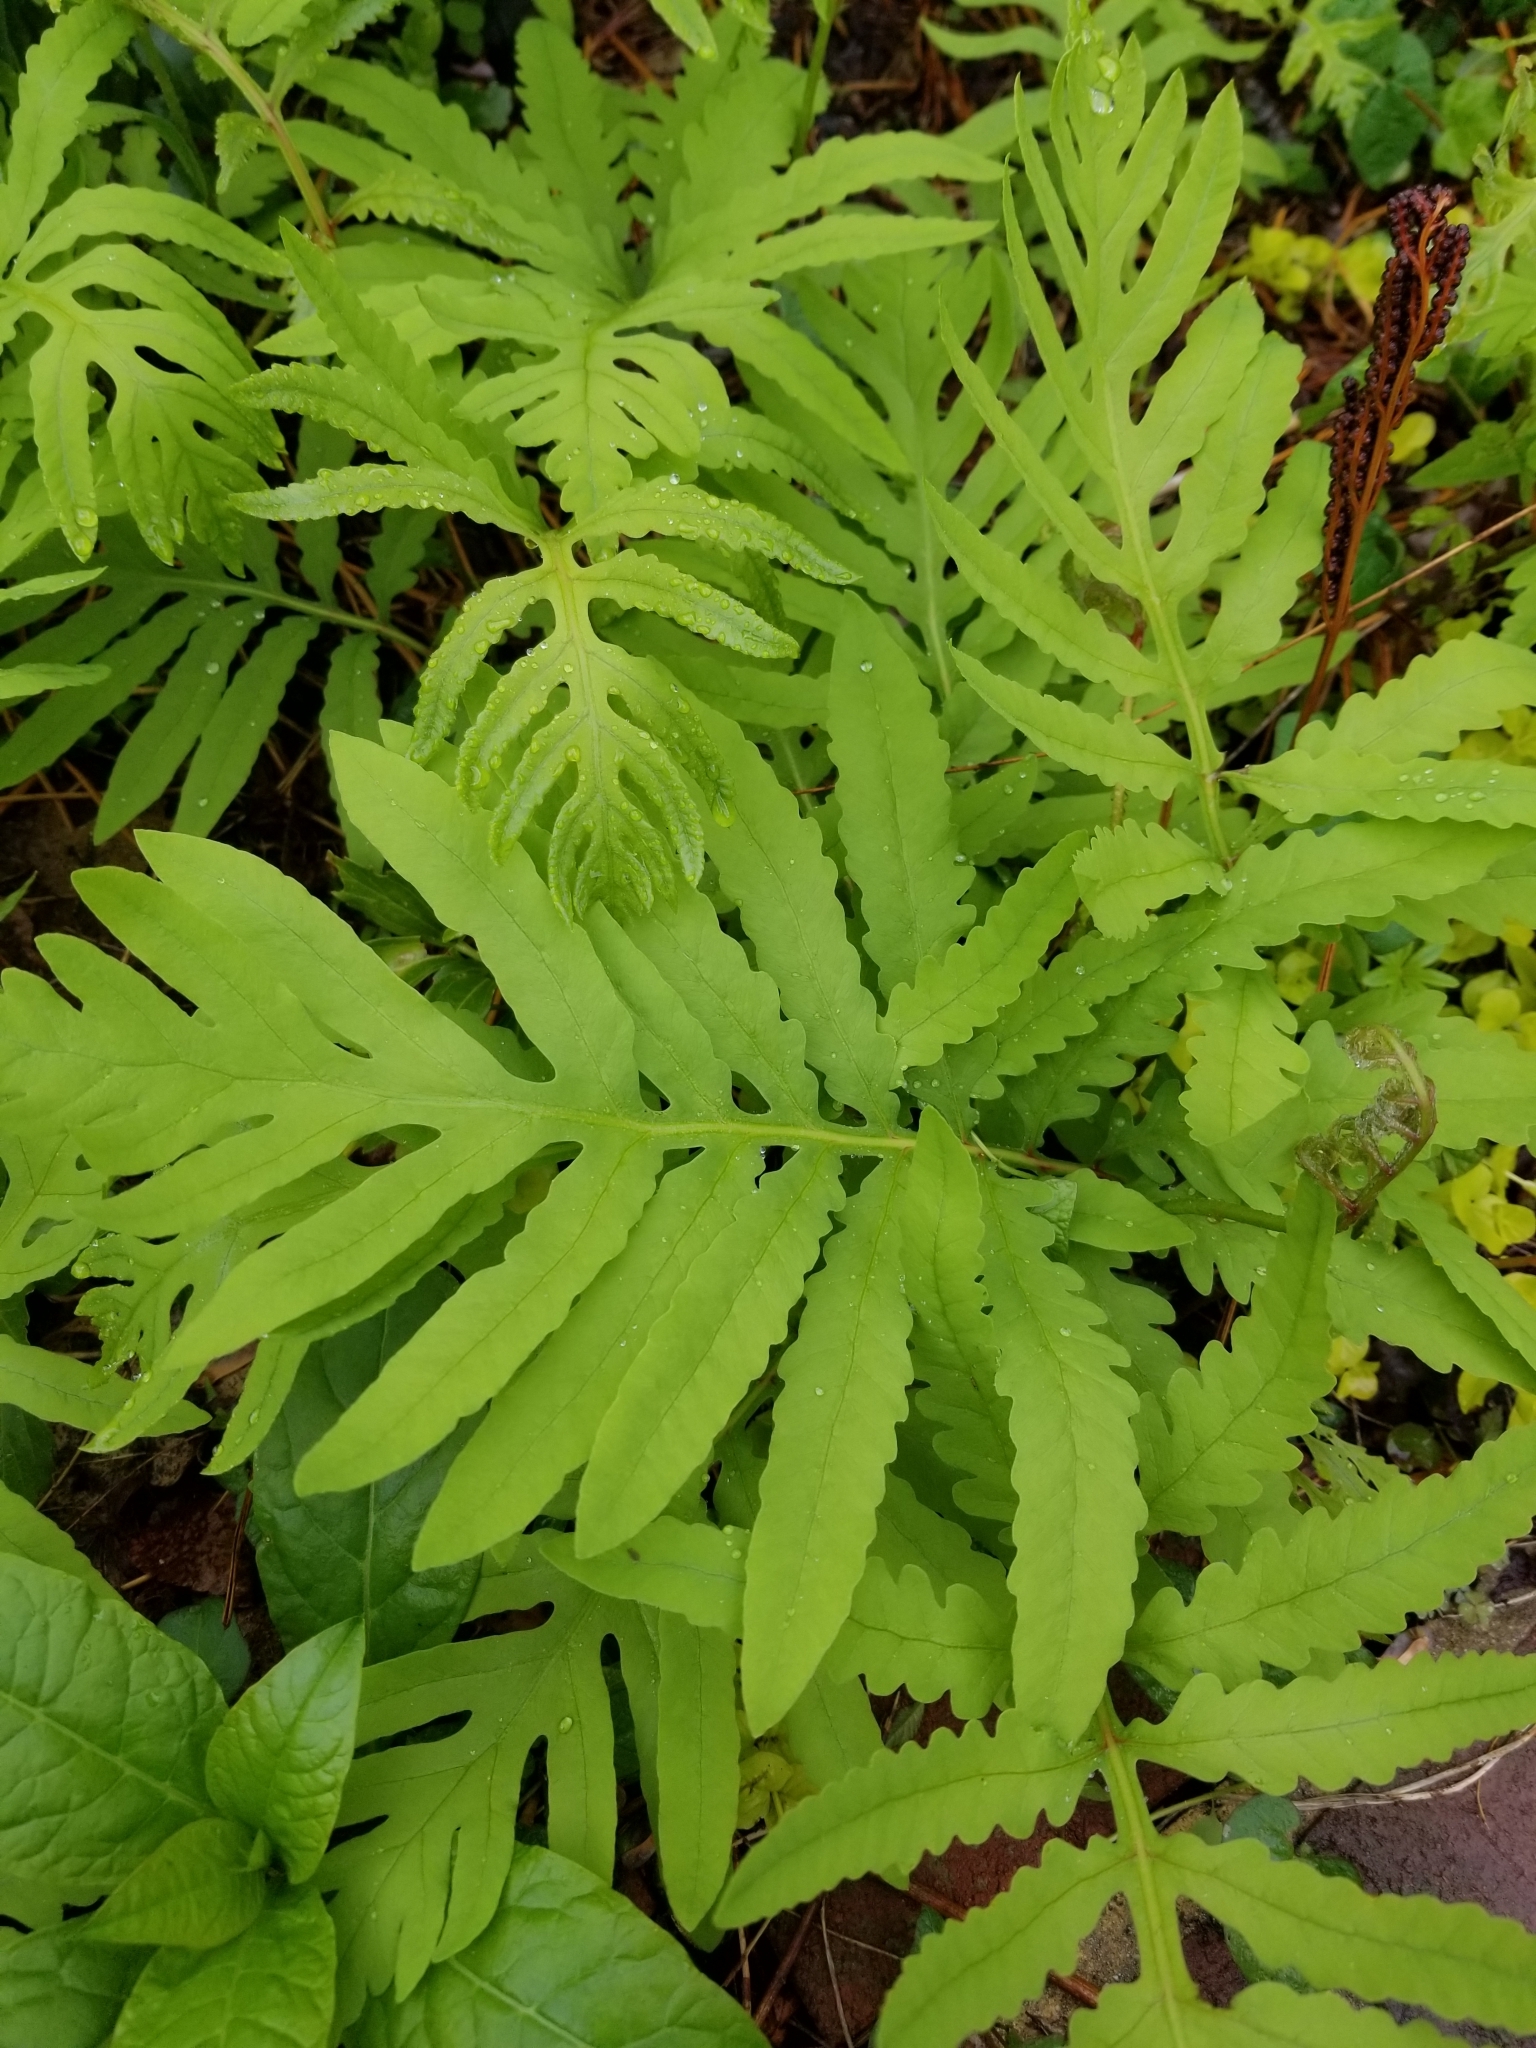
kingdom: Plantae
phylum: Tracheophyta
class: Polypodiopsida
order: Polypodiales
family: Onocleaceae
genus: Onoclea
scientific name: Onoclea sensibilis
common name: Sensitive fern
